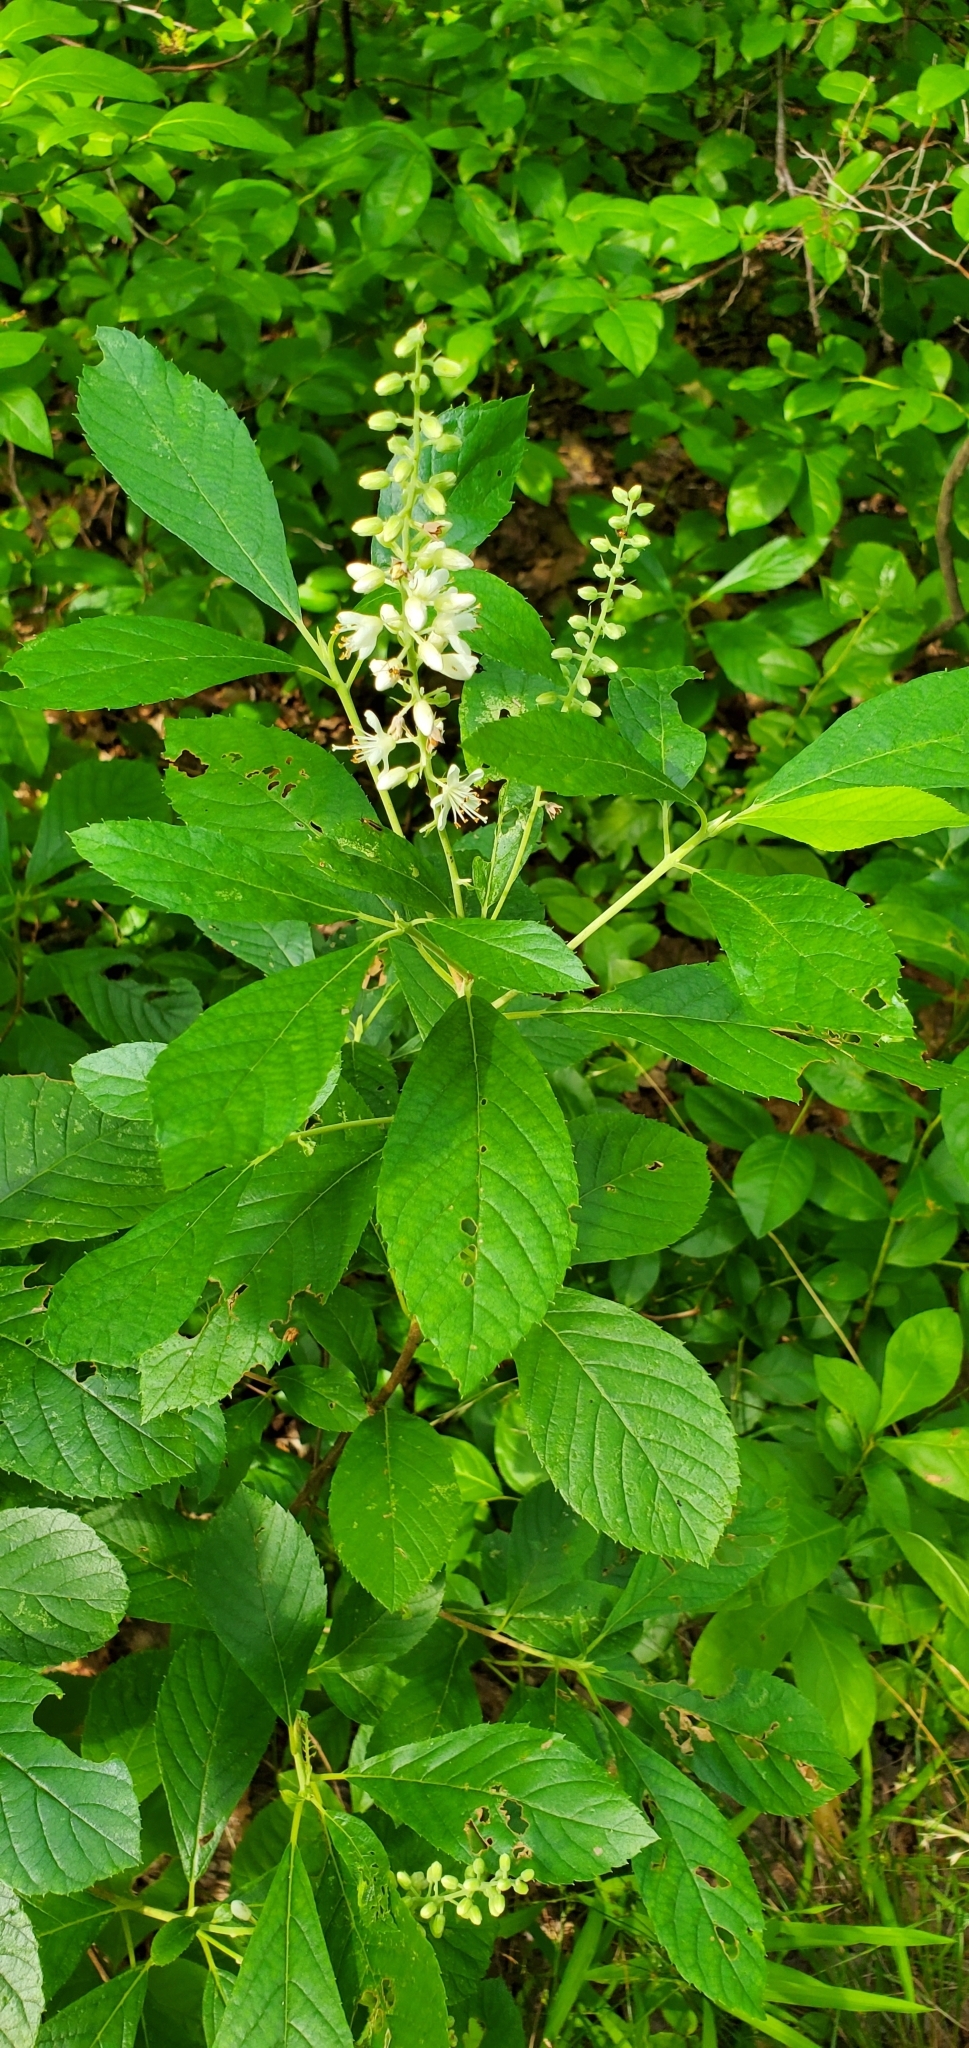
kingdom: Plantae
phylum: Tracheophyta
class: Magnoliopsida
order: Ericales
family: Clethraceae
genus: Clethra
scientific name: Clethra alnifolia
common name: Sweet pepperbush
